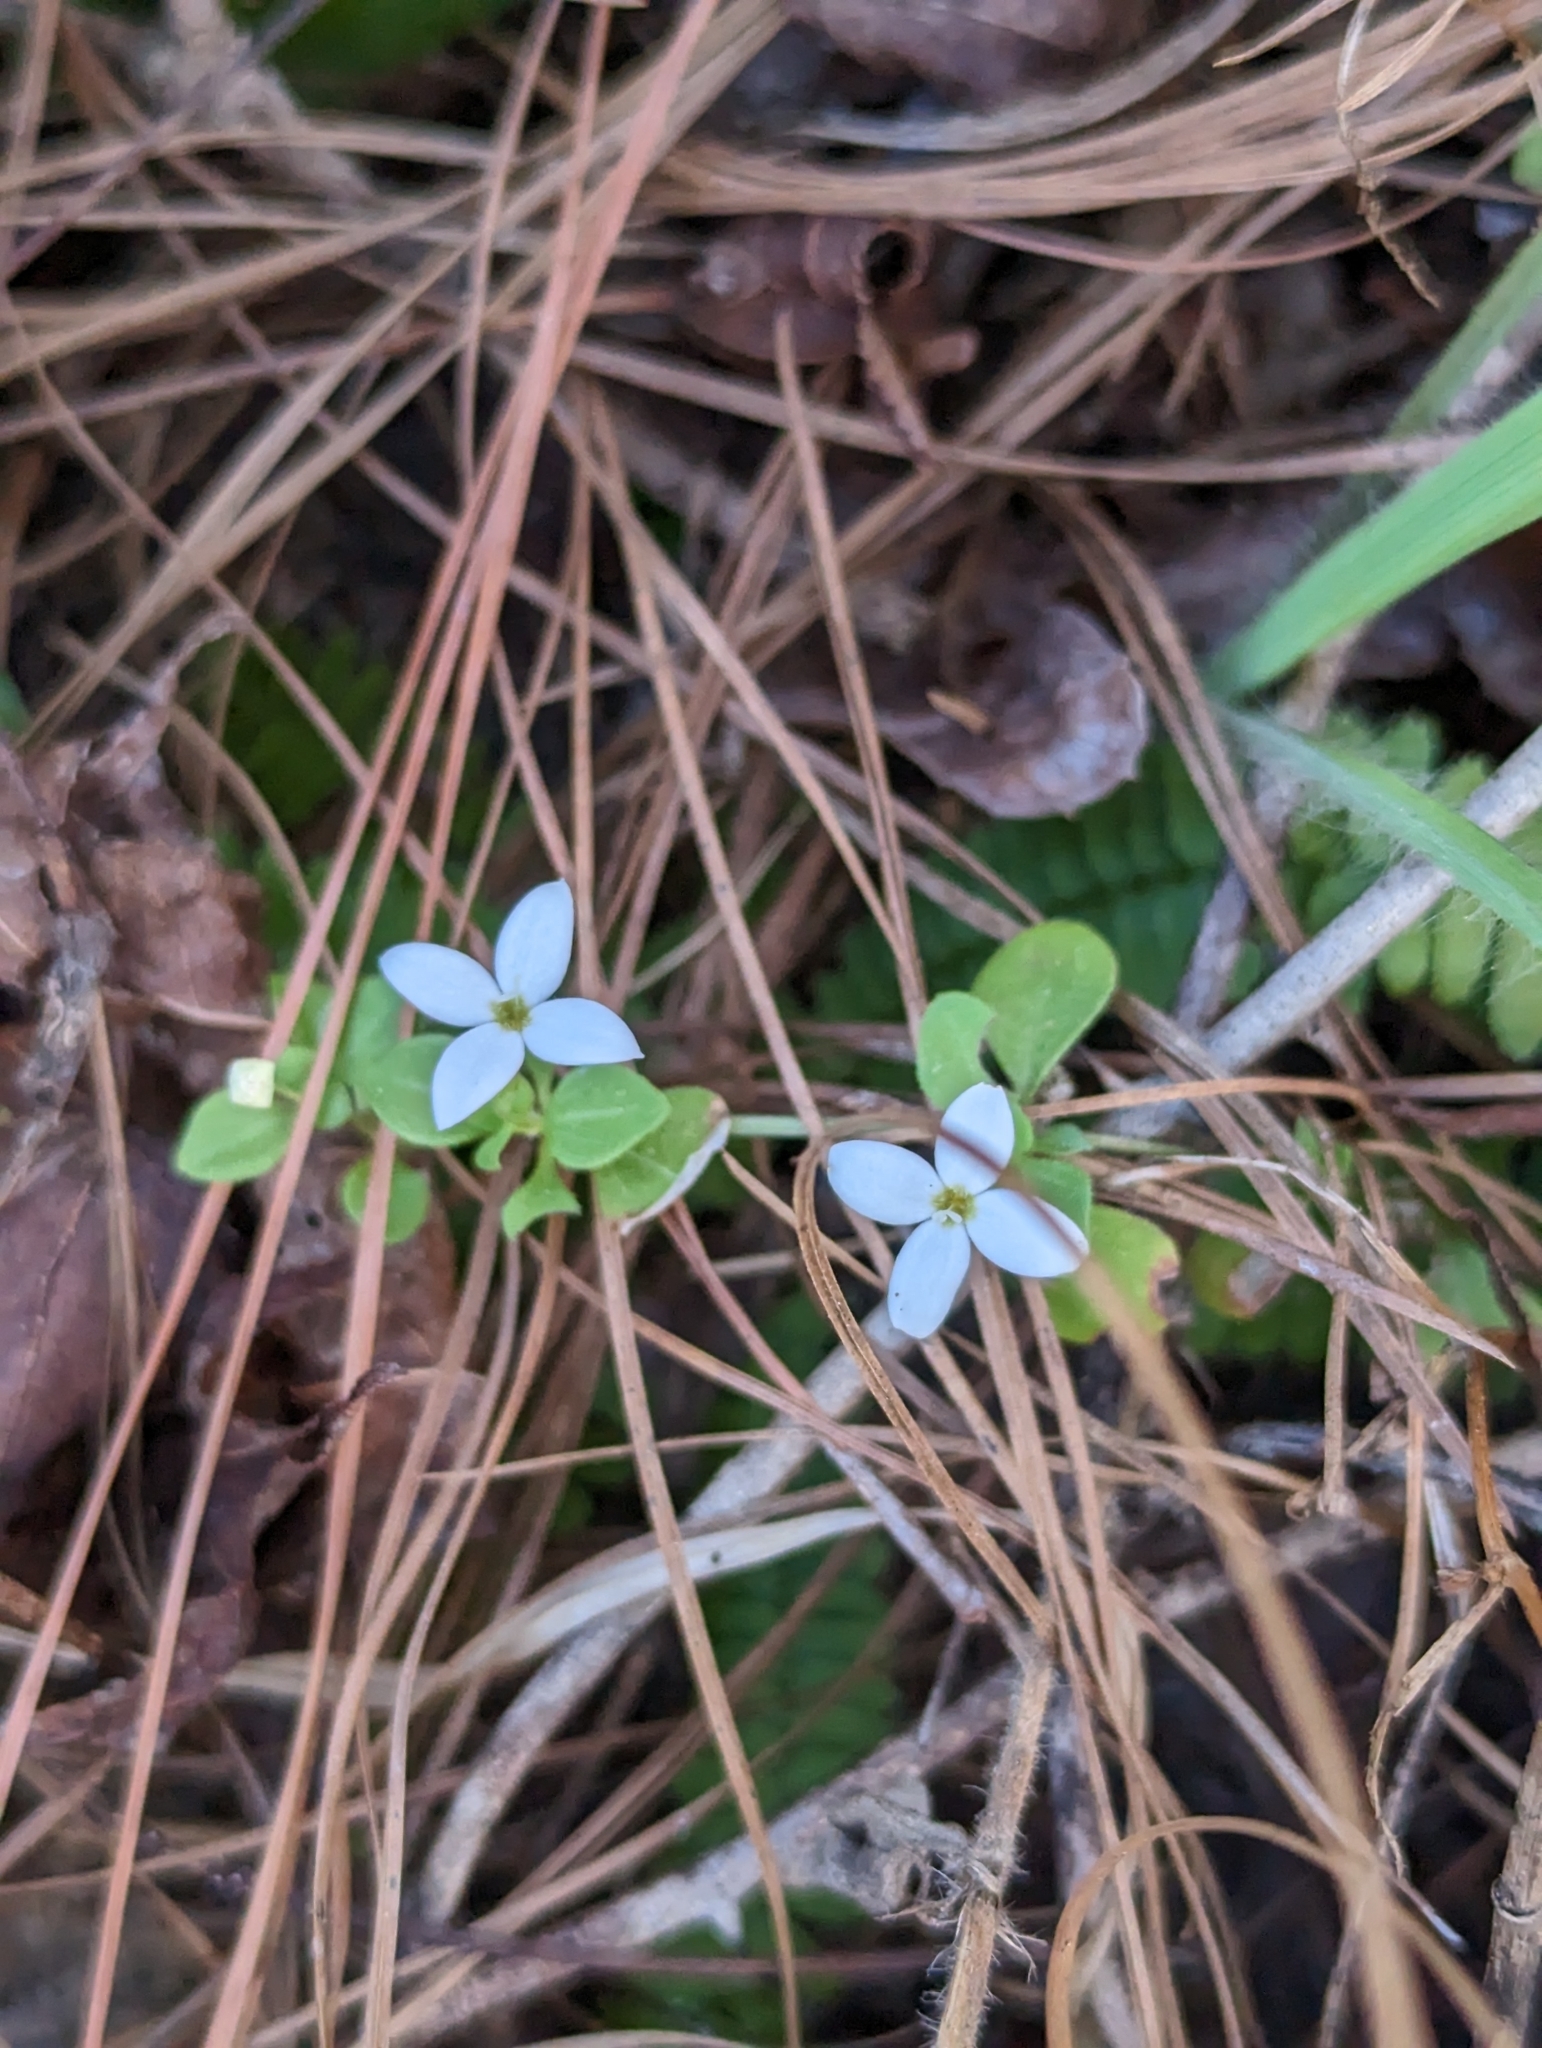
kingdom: Plantae
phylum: Tracheophyta
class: Magnoliopsida
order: Gentianales
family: Rubiaceae
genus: Houstonia
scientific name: Houstonia procumbens
